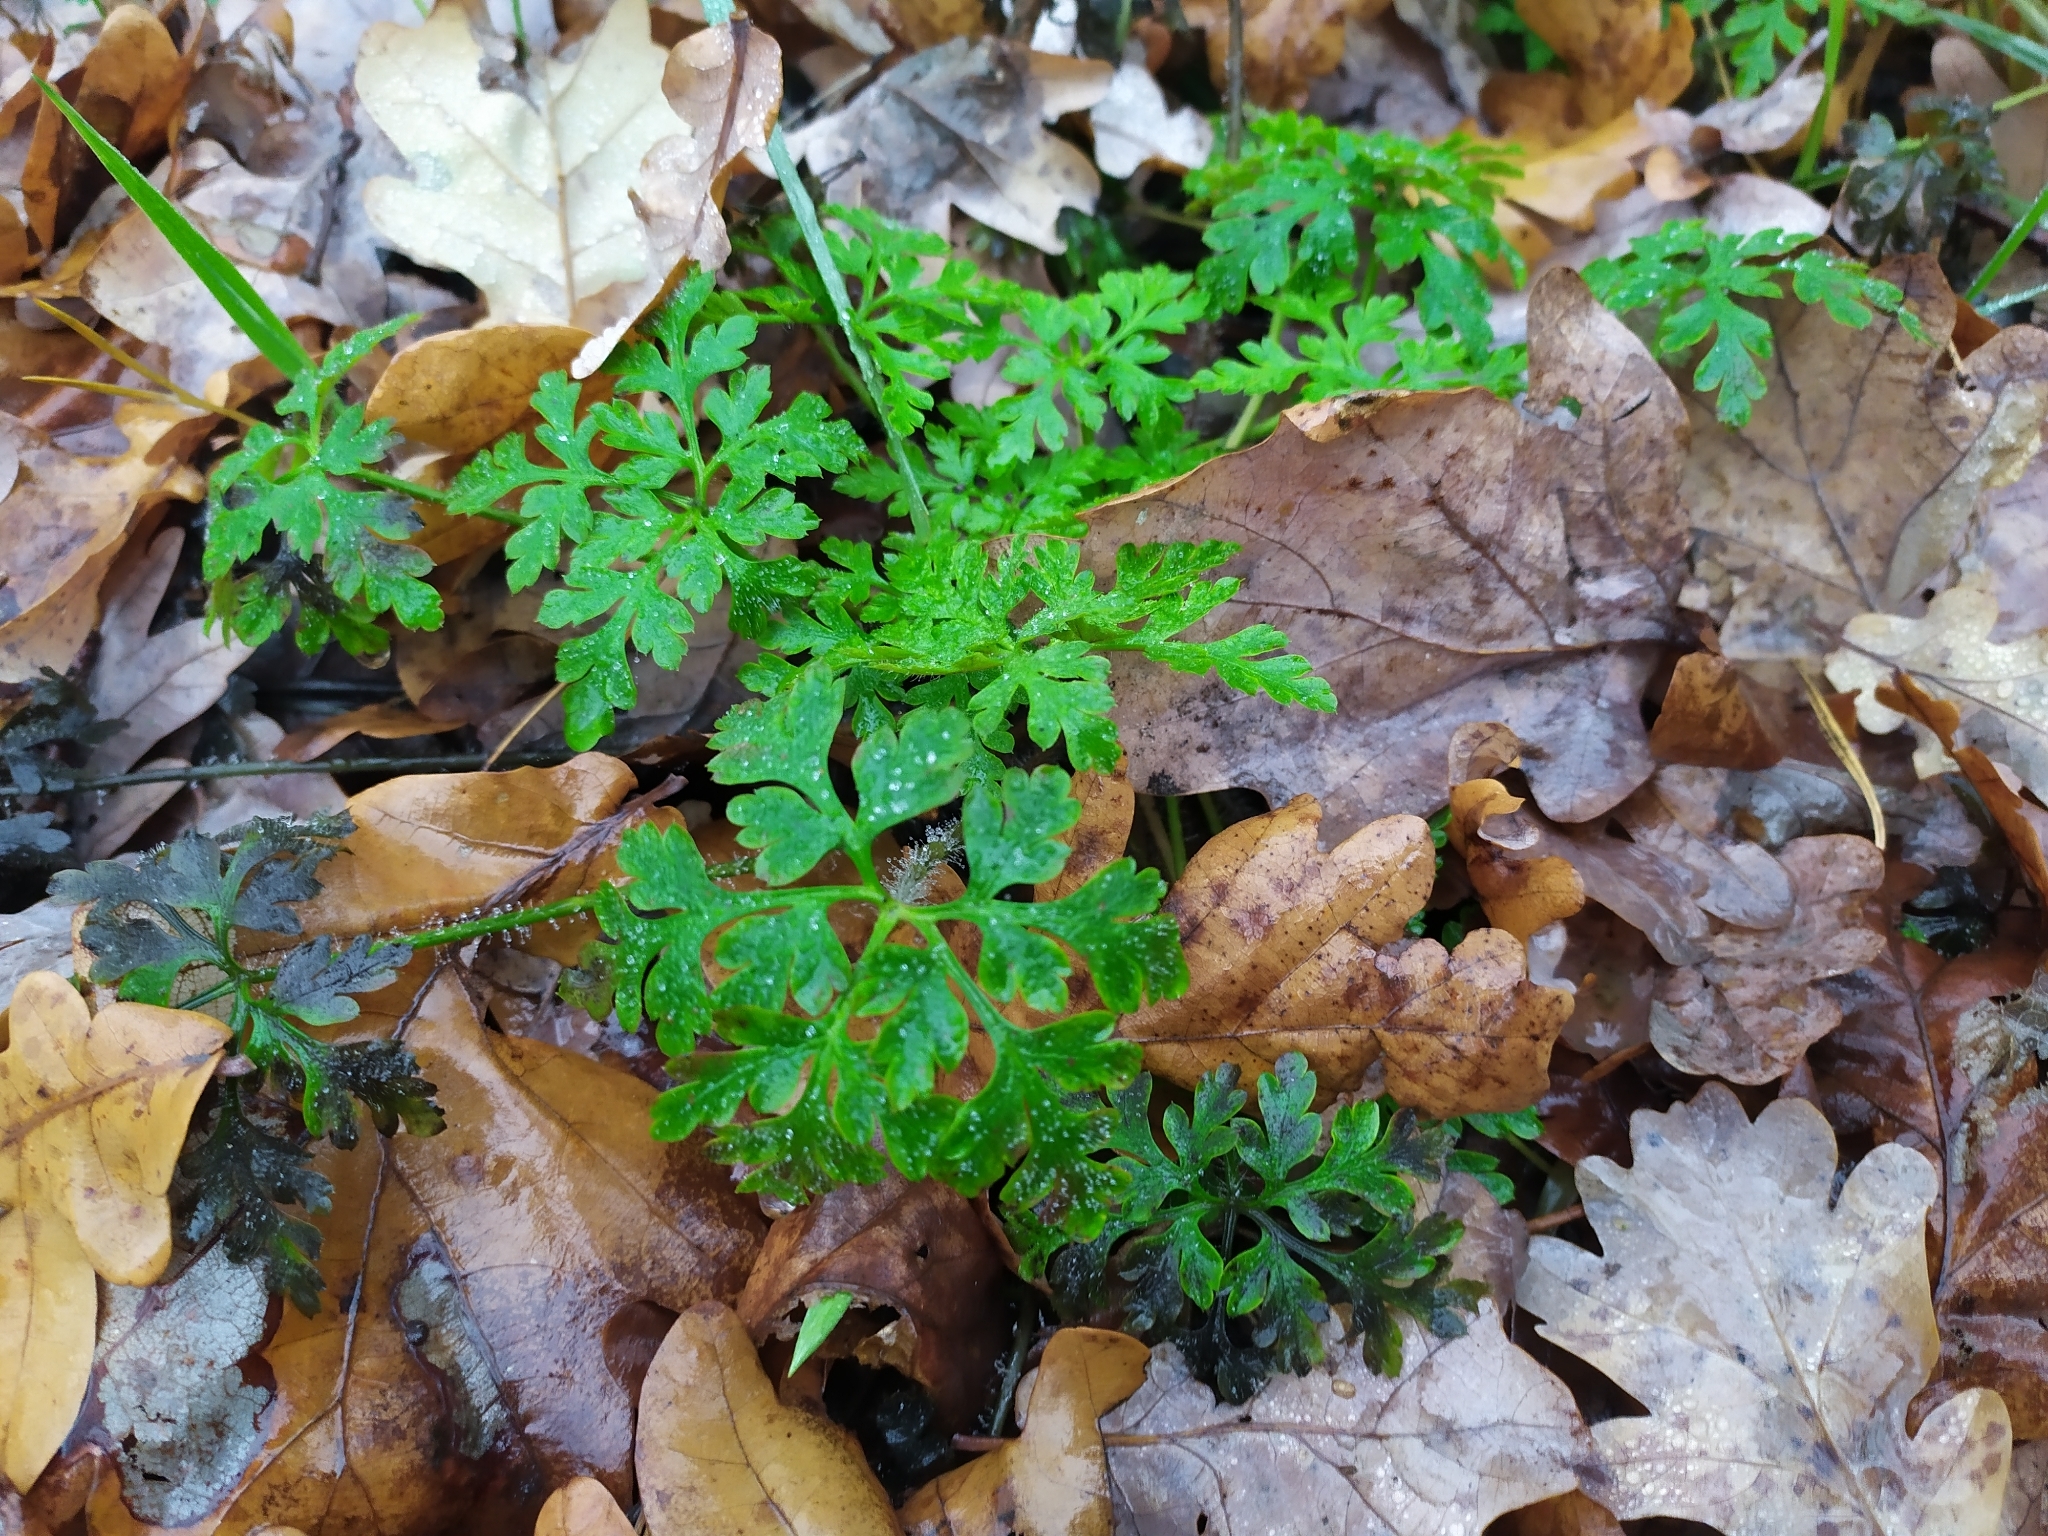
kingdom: Plantae
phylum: Tracheophyta
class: Magnoliopsida
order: Geraniales
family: Geraniaceae
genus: Geranium
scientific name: Geranium robertianum
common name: Herb-robert
